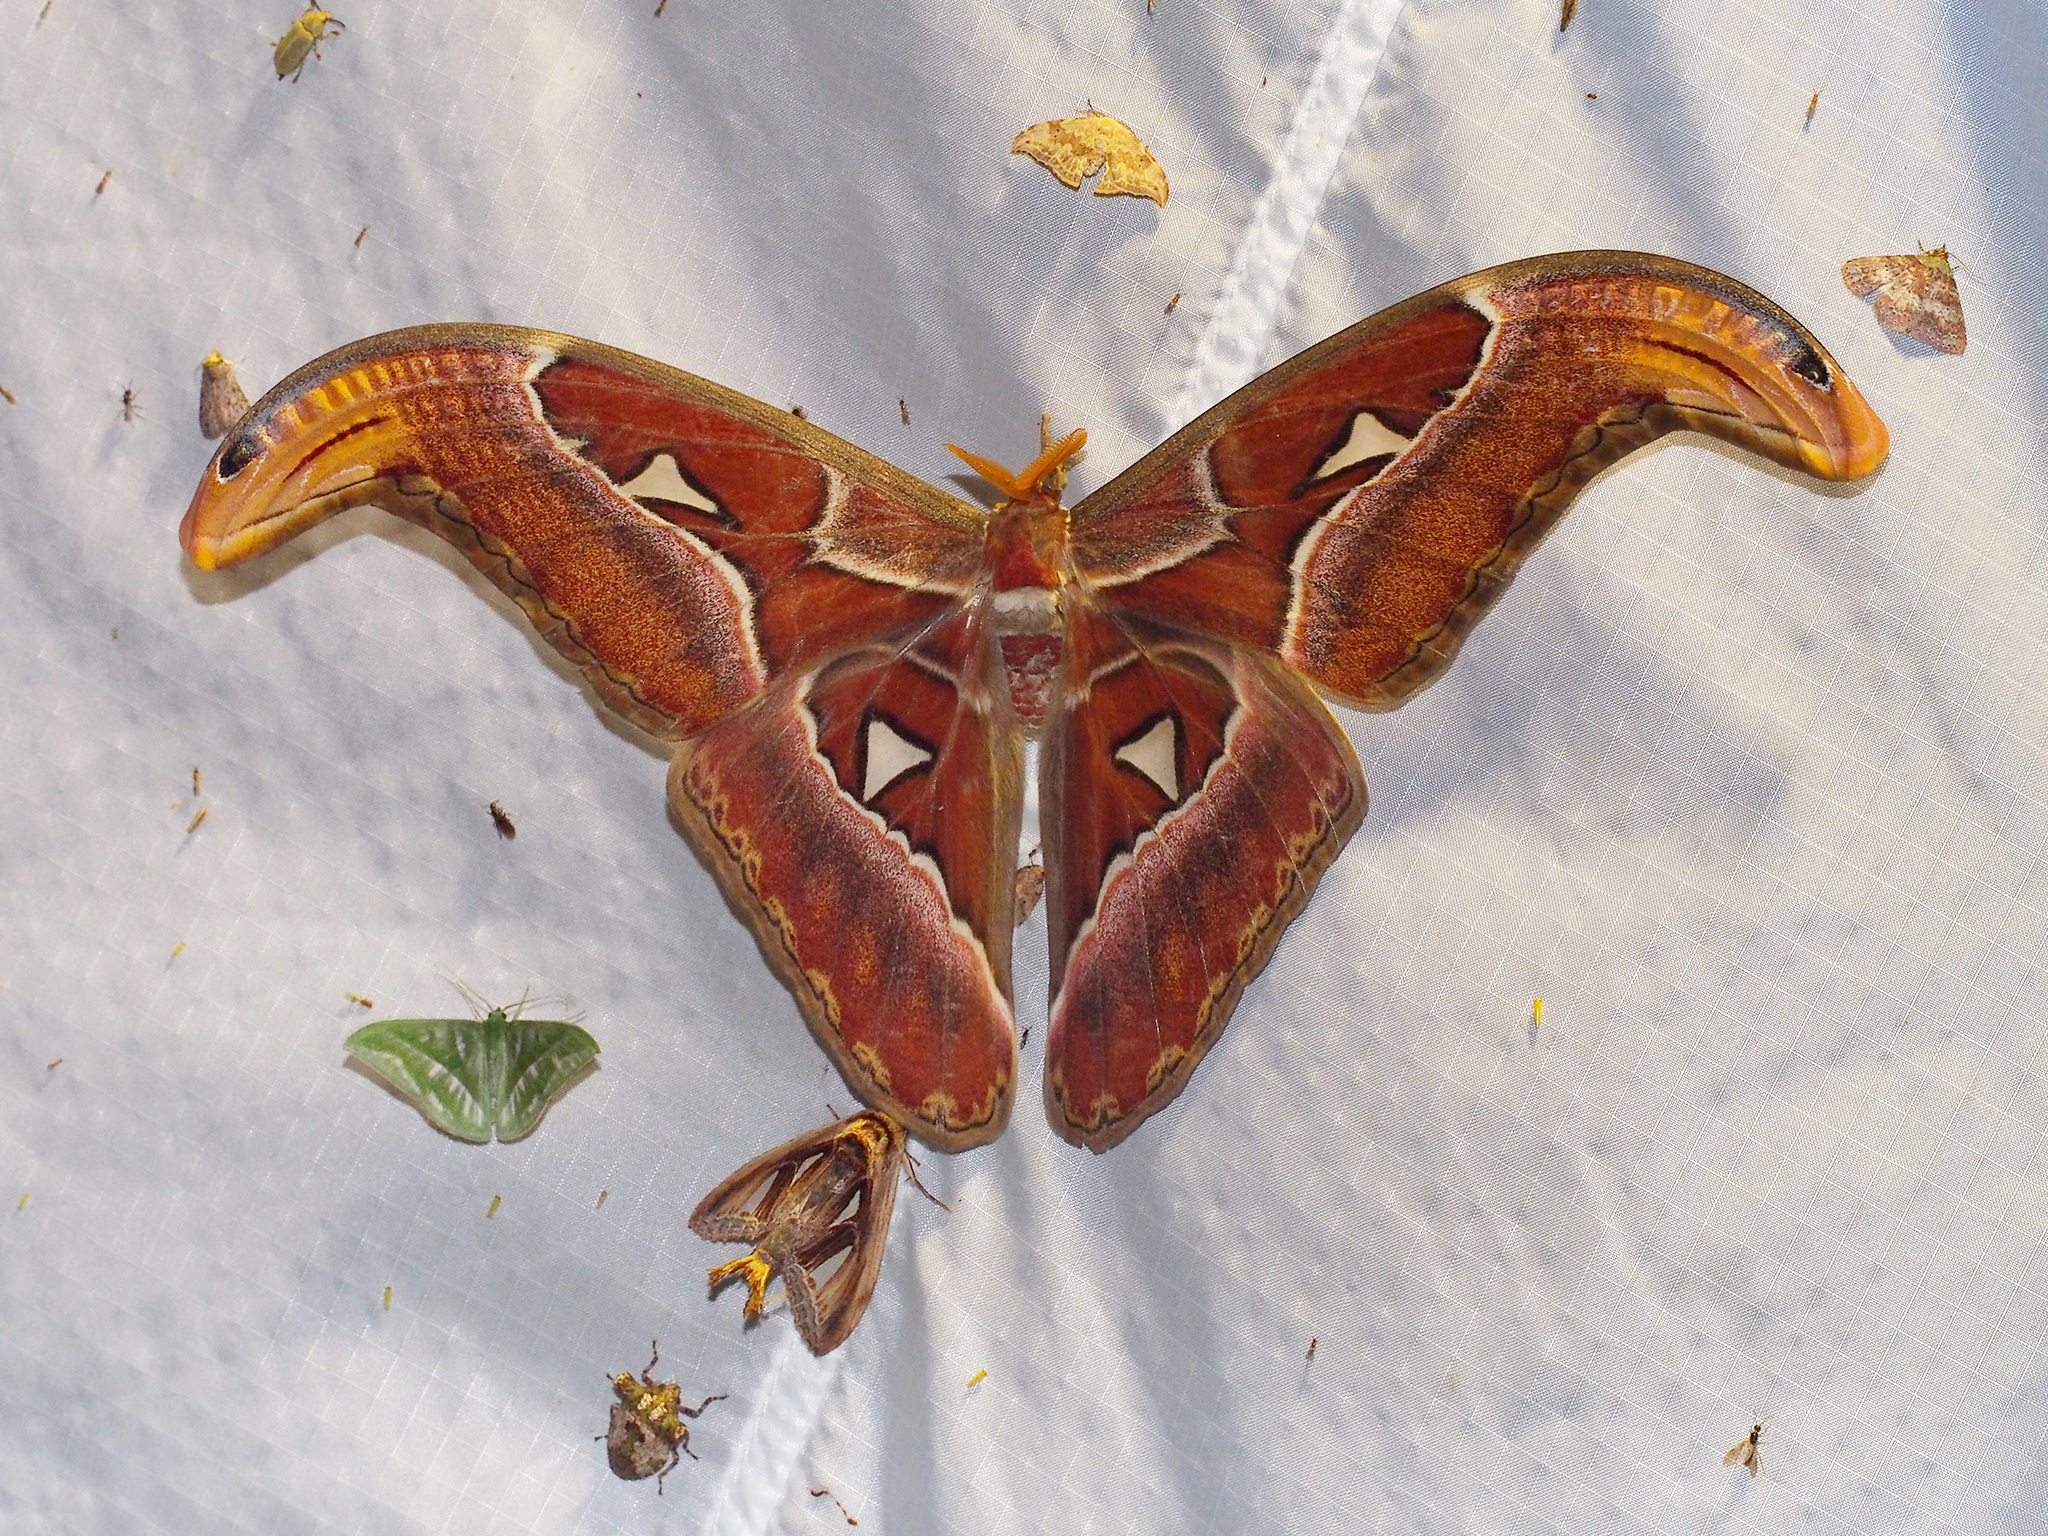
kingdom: Animalia
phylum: Arthropoda
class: Insecta
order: Lepidoptera
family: Saturniidae
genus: Attacus
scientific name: Attacus atlas
